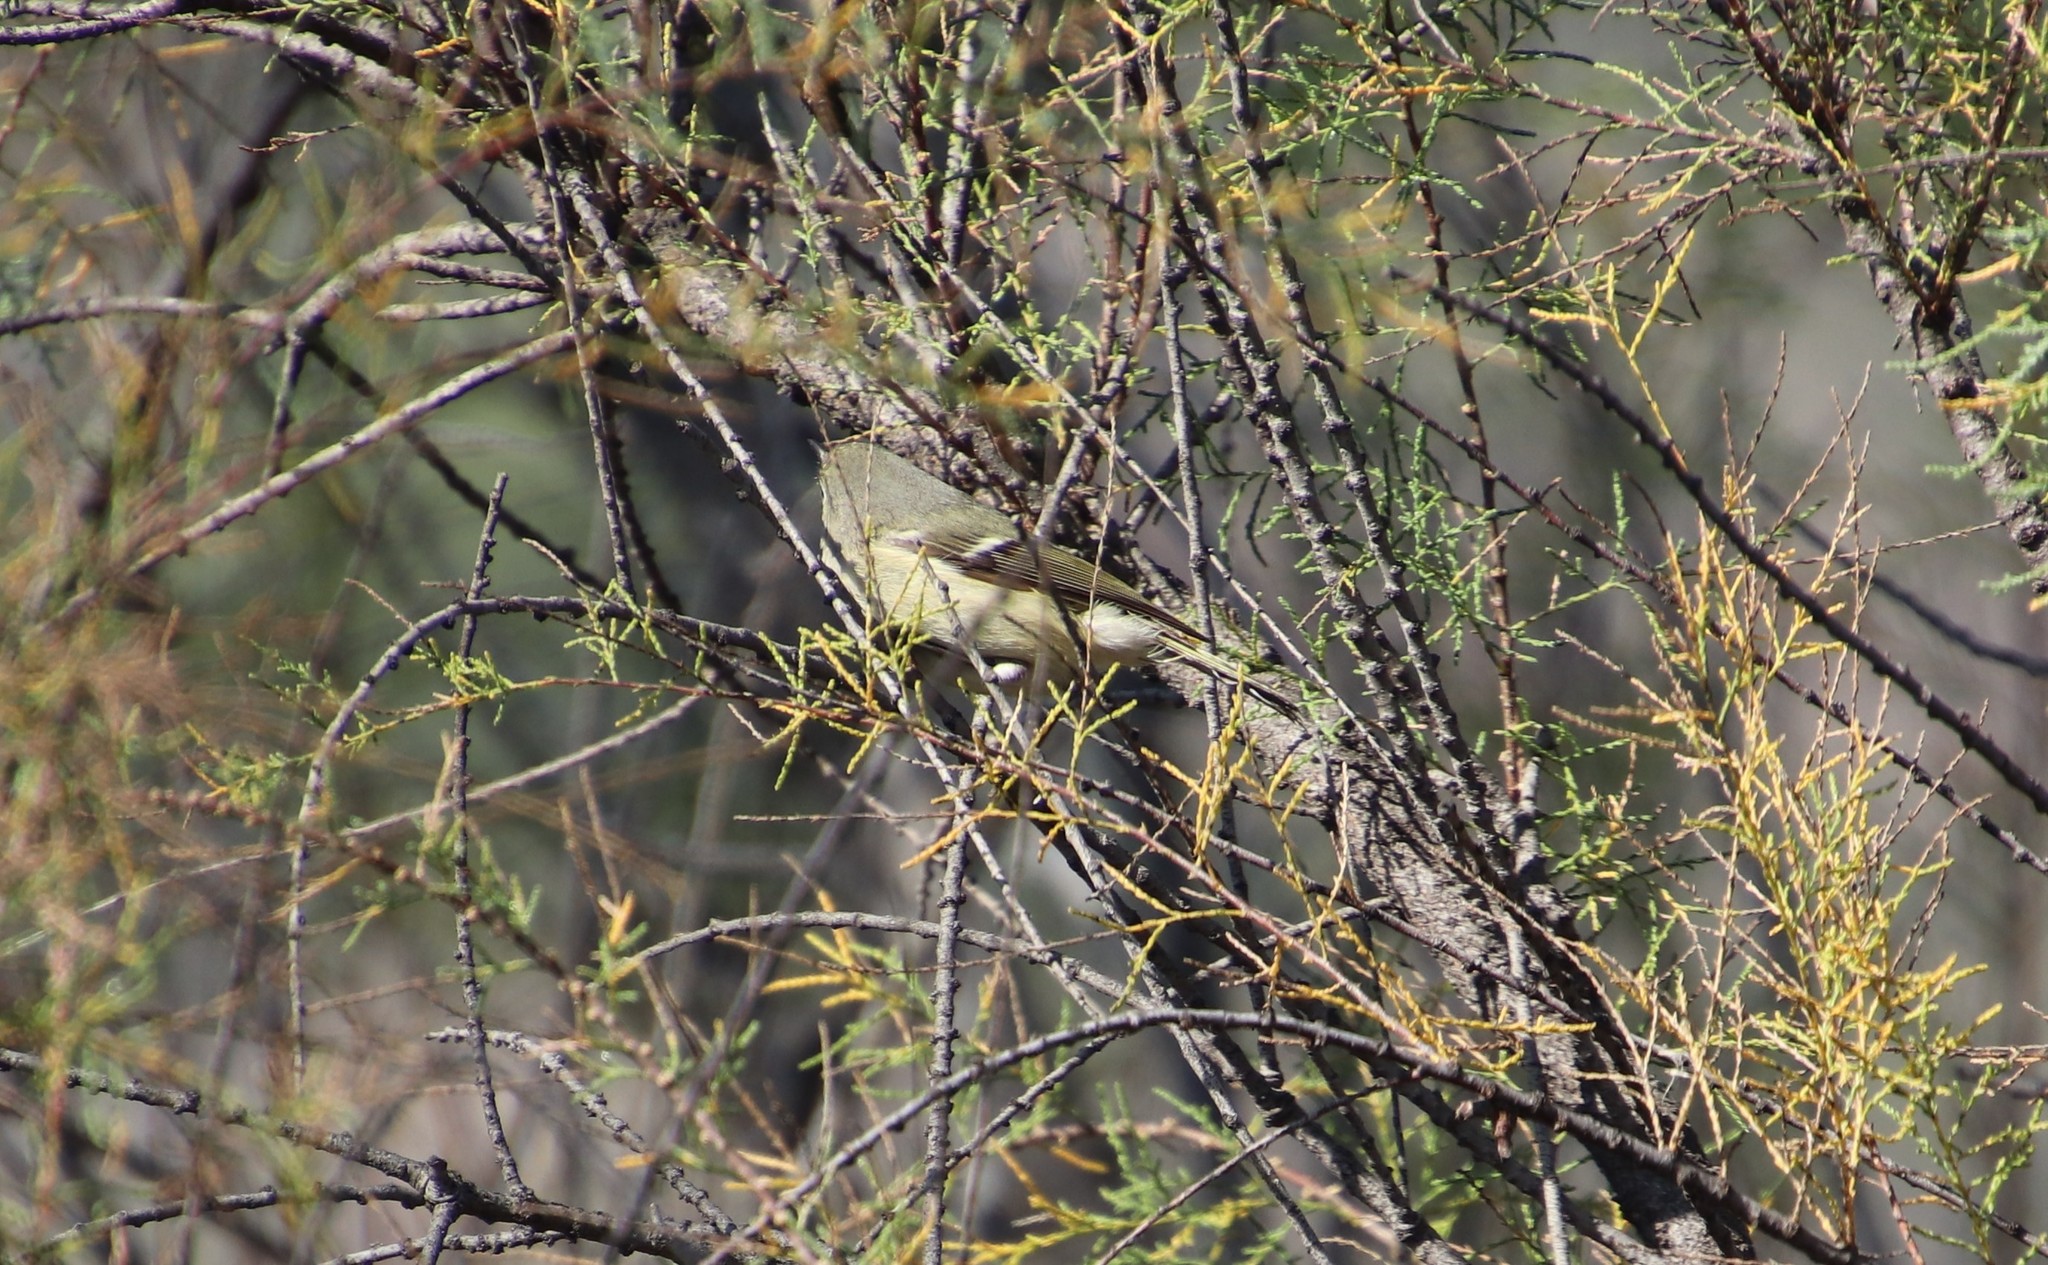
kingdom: Animalia
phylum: Chordata
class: Aves
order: Passeriformes
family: Regulidae
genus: Regulus
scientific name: Regulus calendula
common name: Ruby-crowned kinglet
